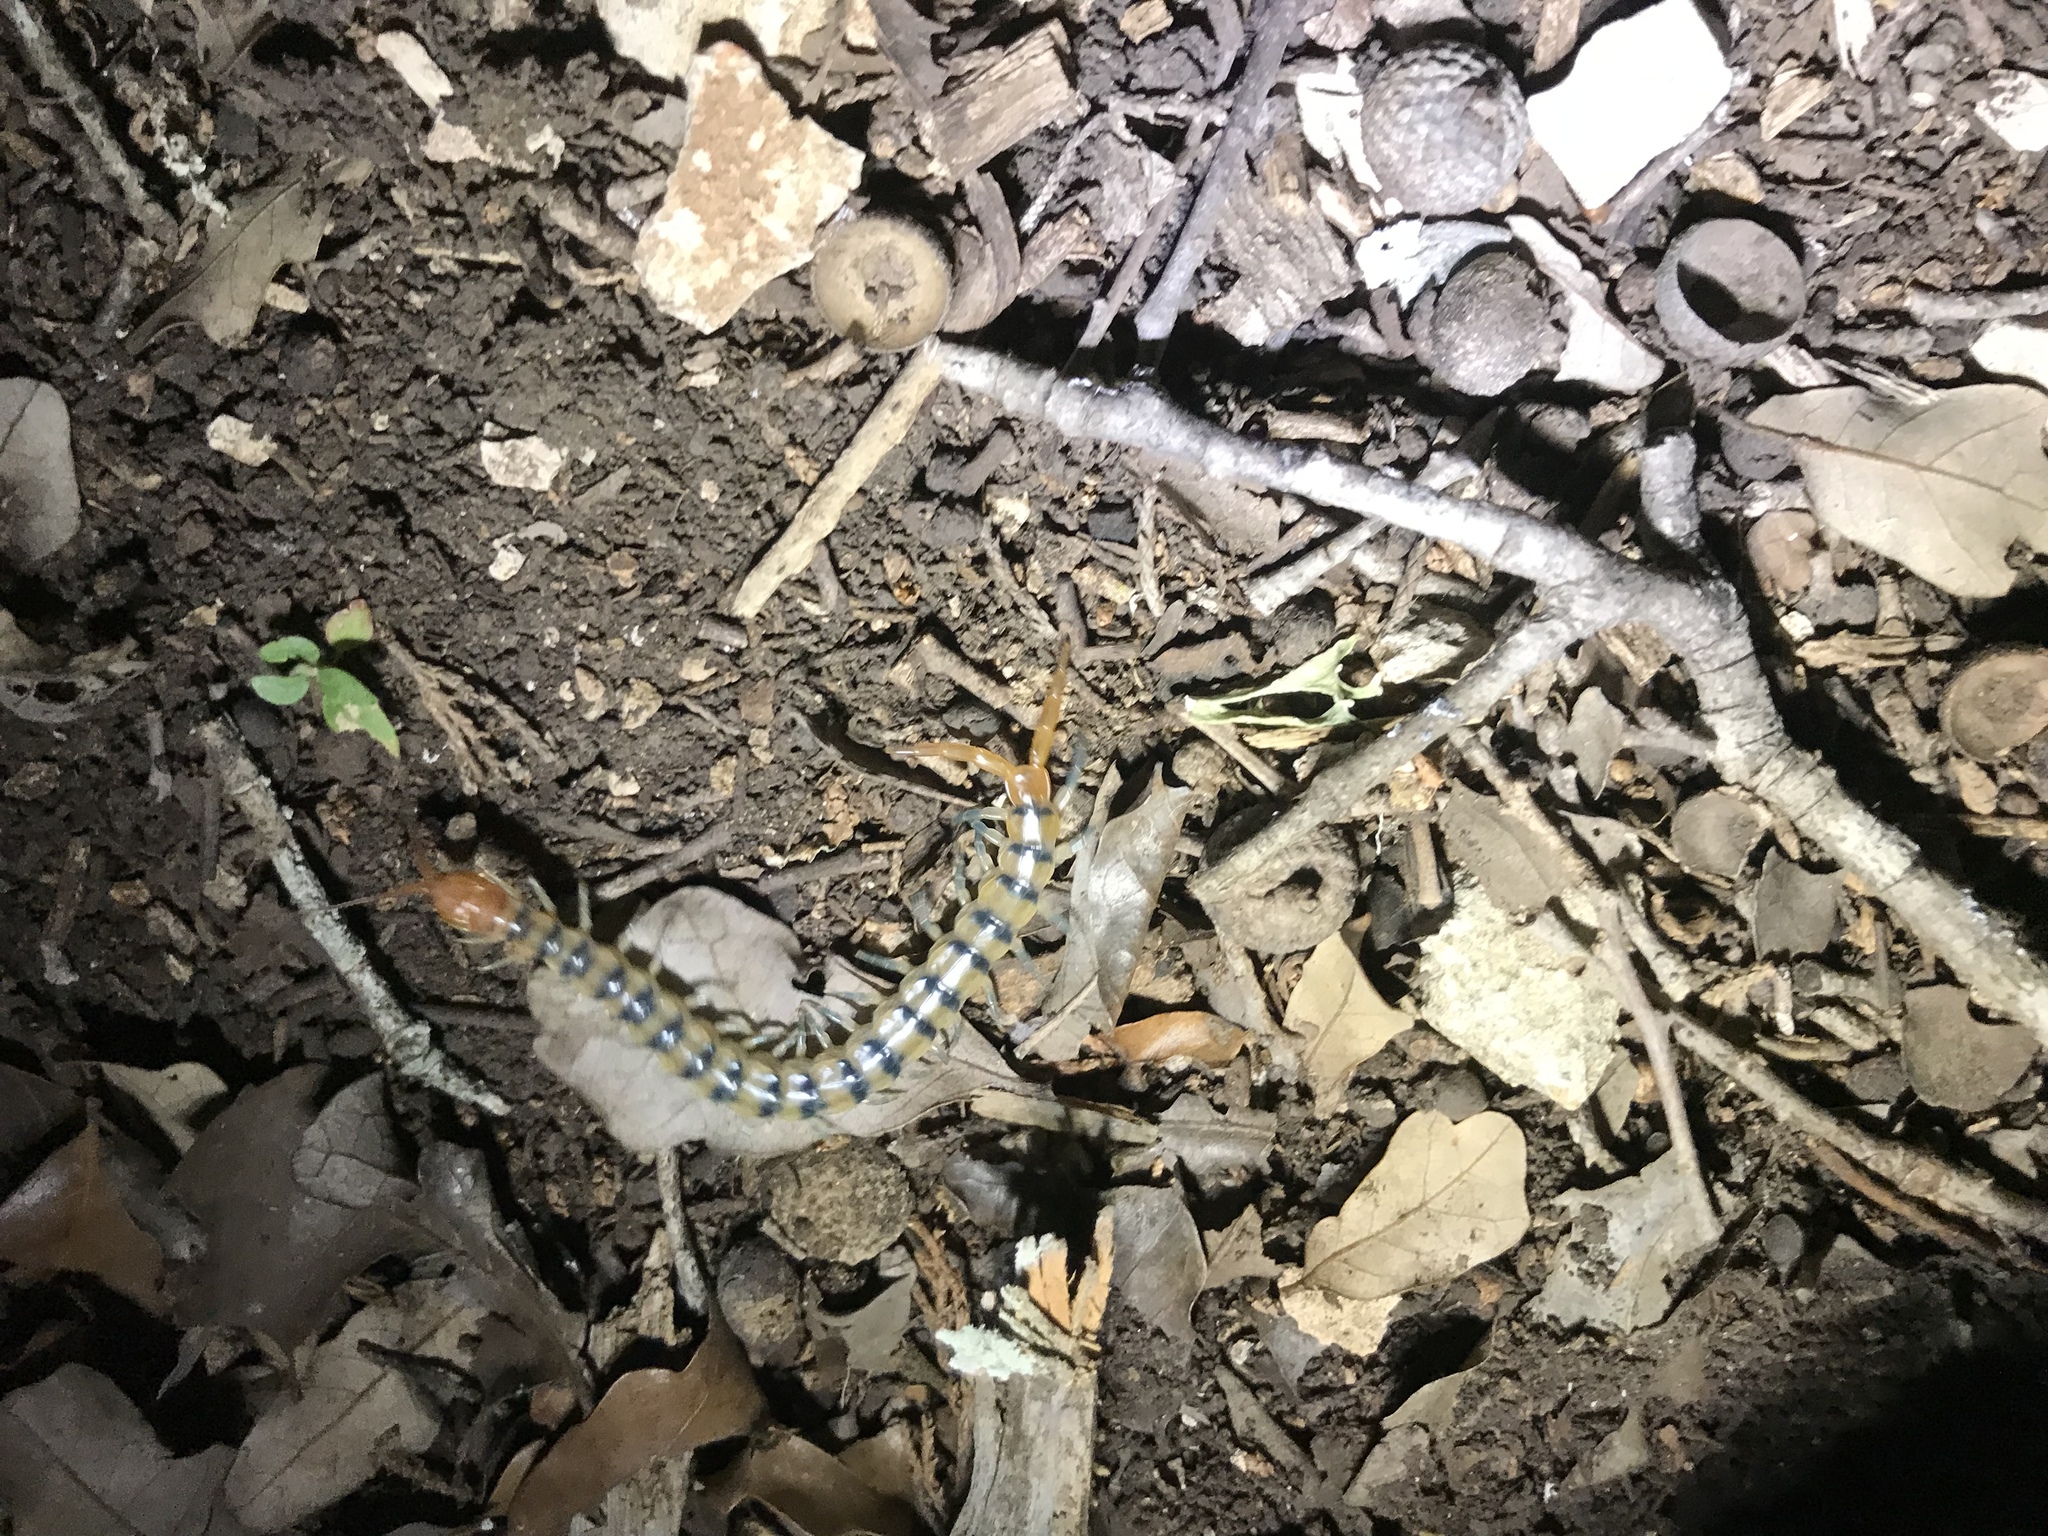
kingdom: Animalia
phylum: Arthropoda
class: Chilopoda
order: Scolopendromorpha
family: Scolopendridae
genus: Scolopendra
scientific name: Scolopendra polymorpha
